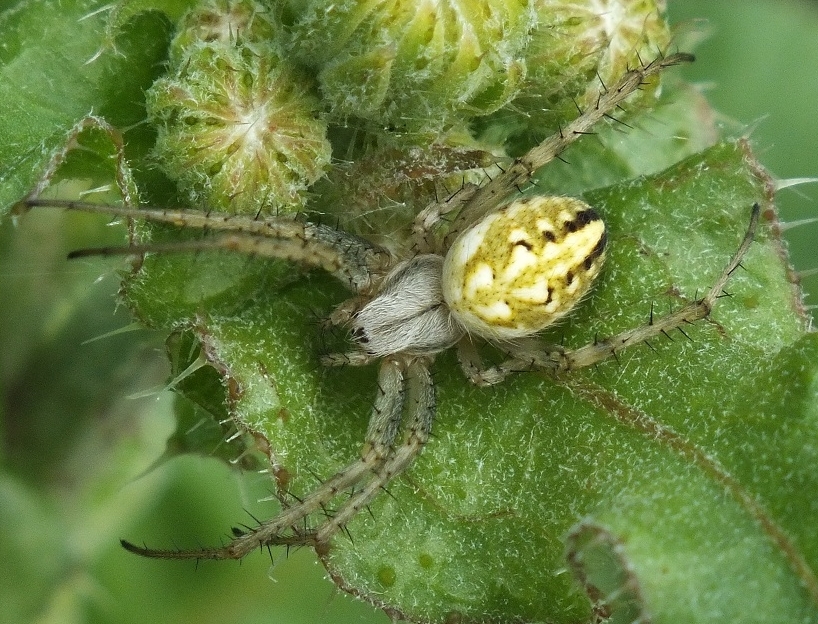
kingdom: Animalia
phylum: Arthropoda
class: Arachnida
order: Araneae
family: Araneidae
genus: Neoscona
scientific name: Neoscona adianta
